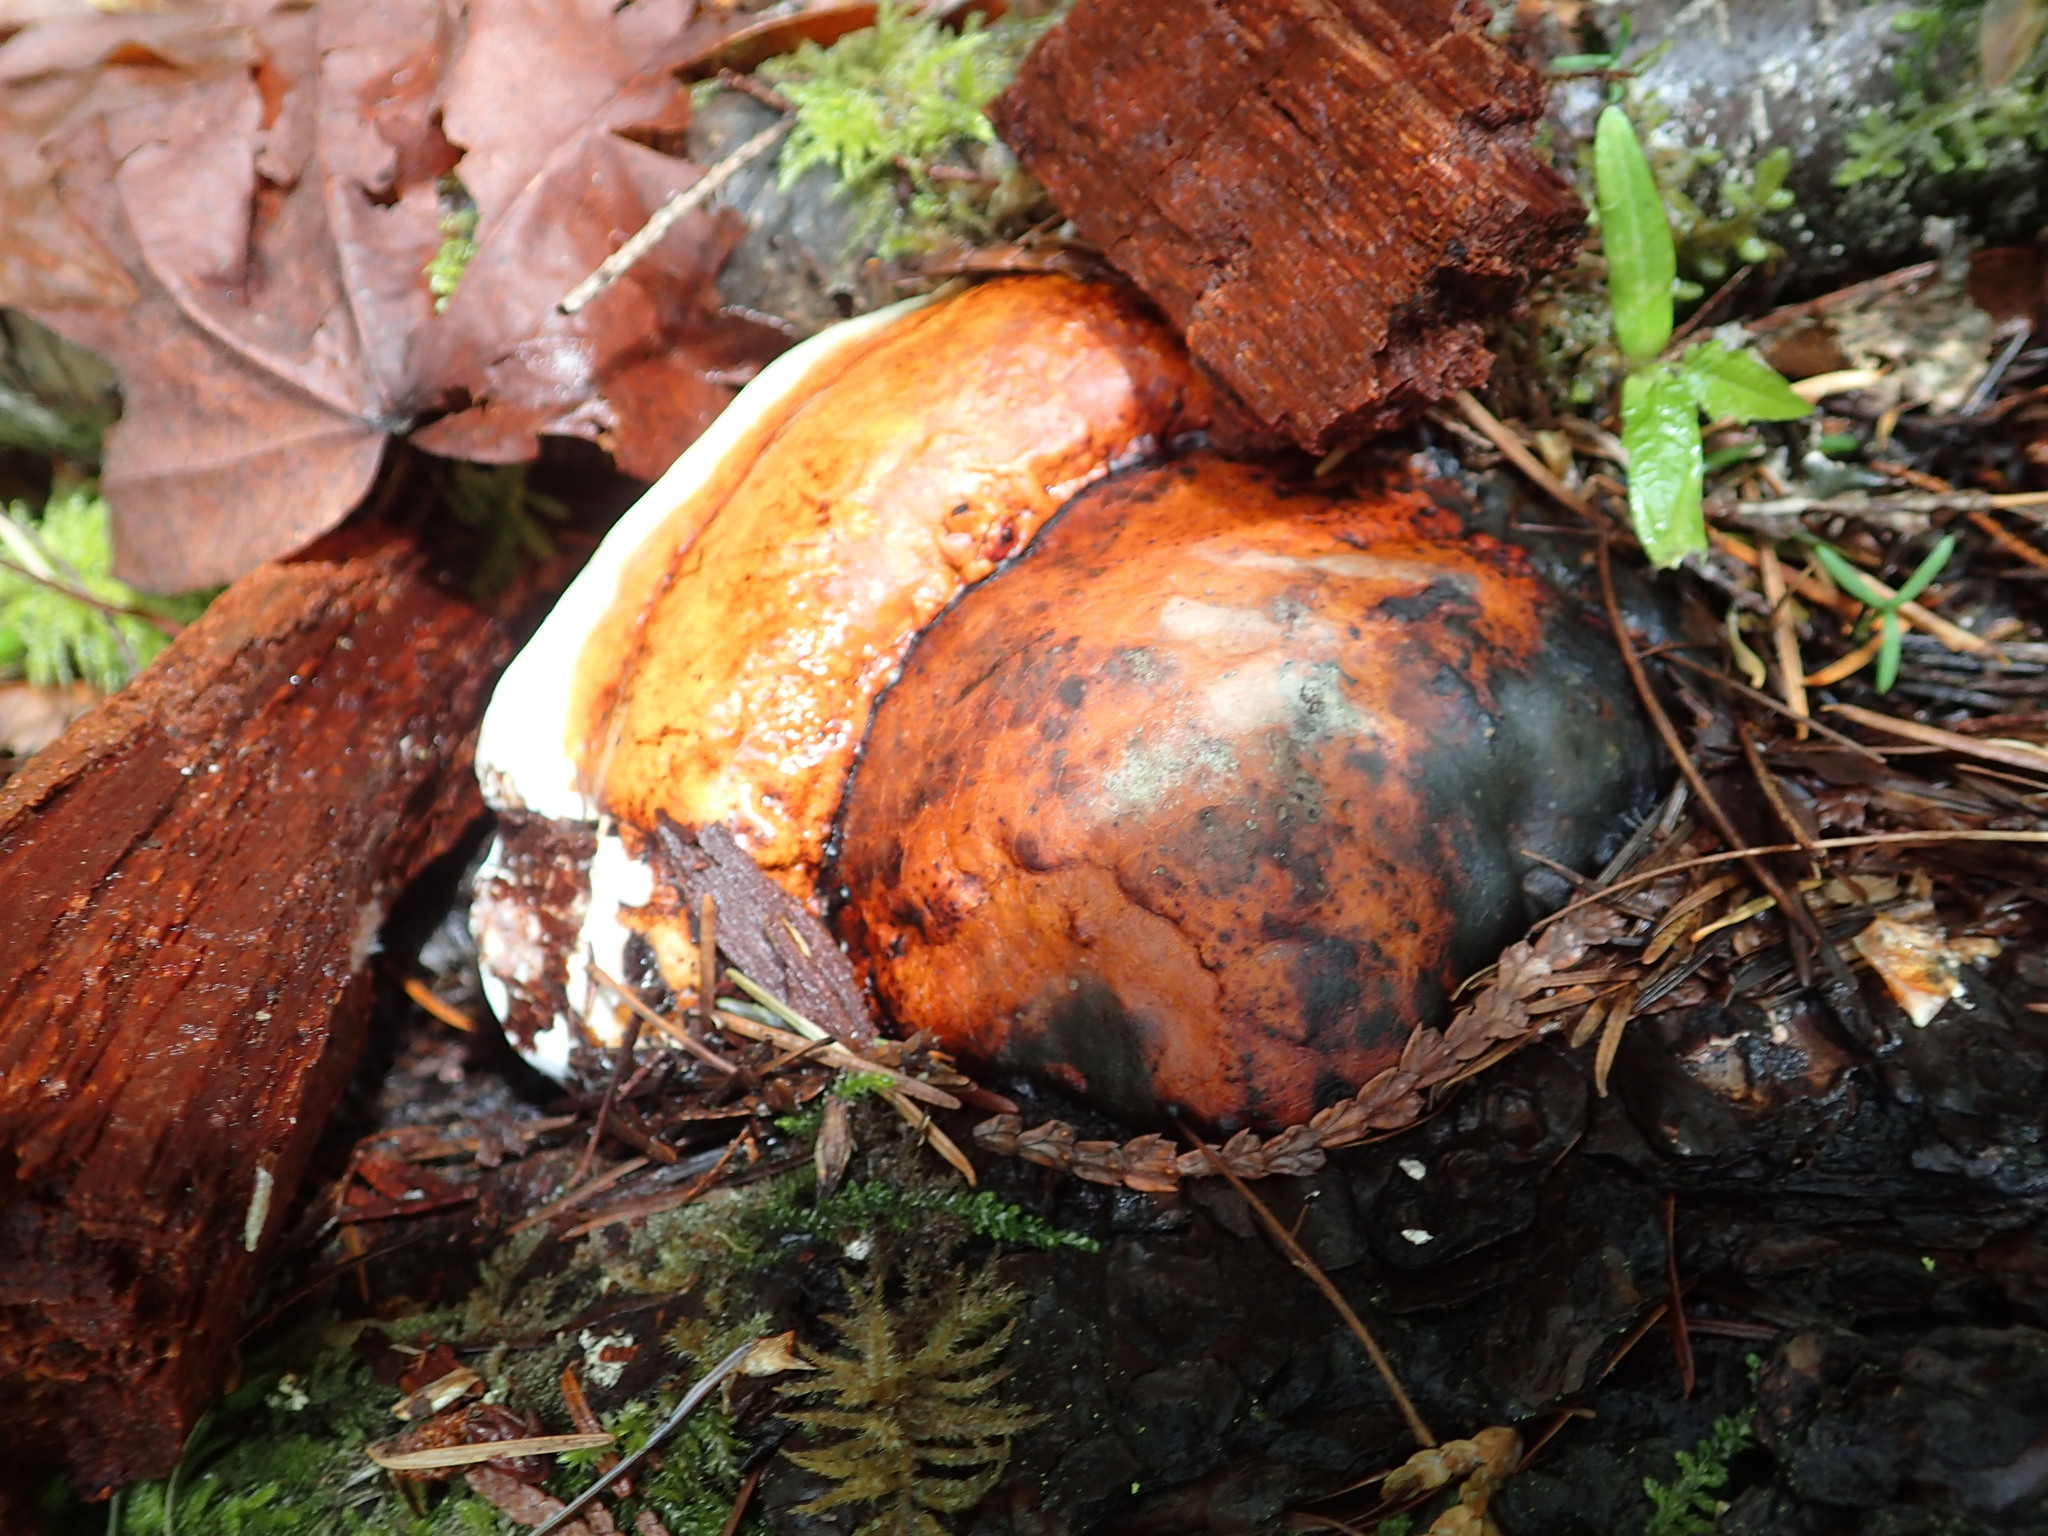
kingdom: Fungi
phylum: Basidiomycota
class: Agaricomycetes
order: Polyporales
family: Fomitopsidaceae
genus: Fomitopsis
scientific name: Fomitopsis mounceae
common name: Northern red belt
